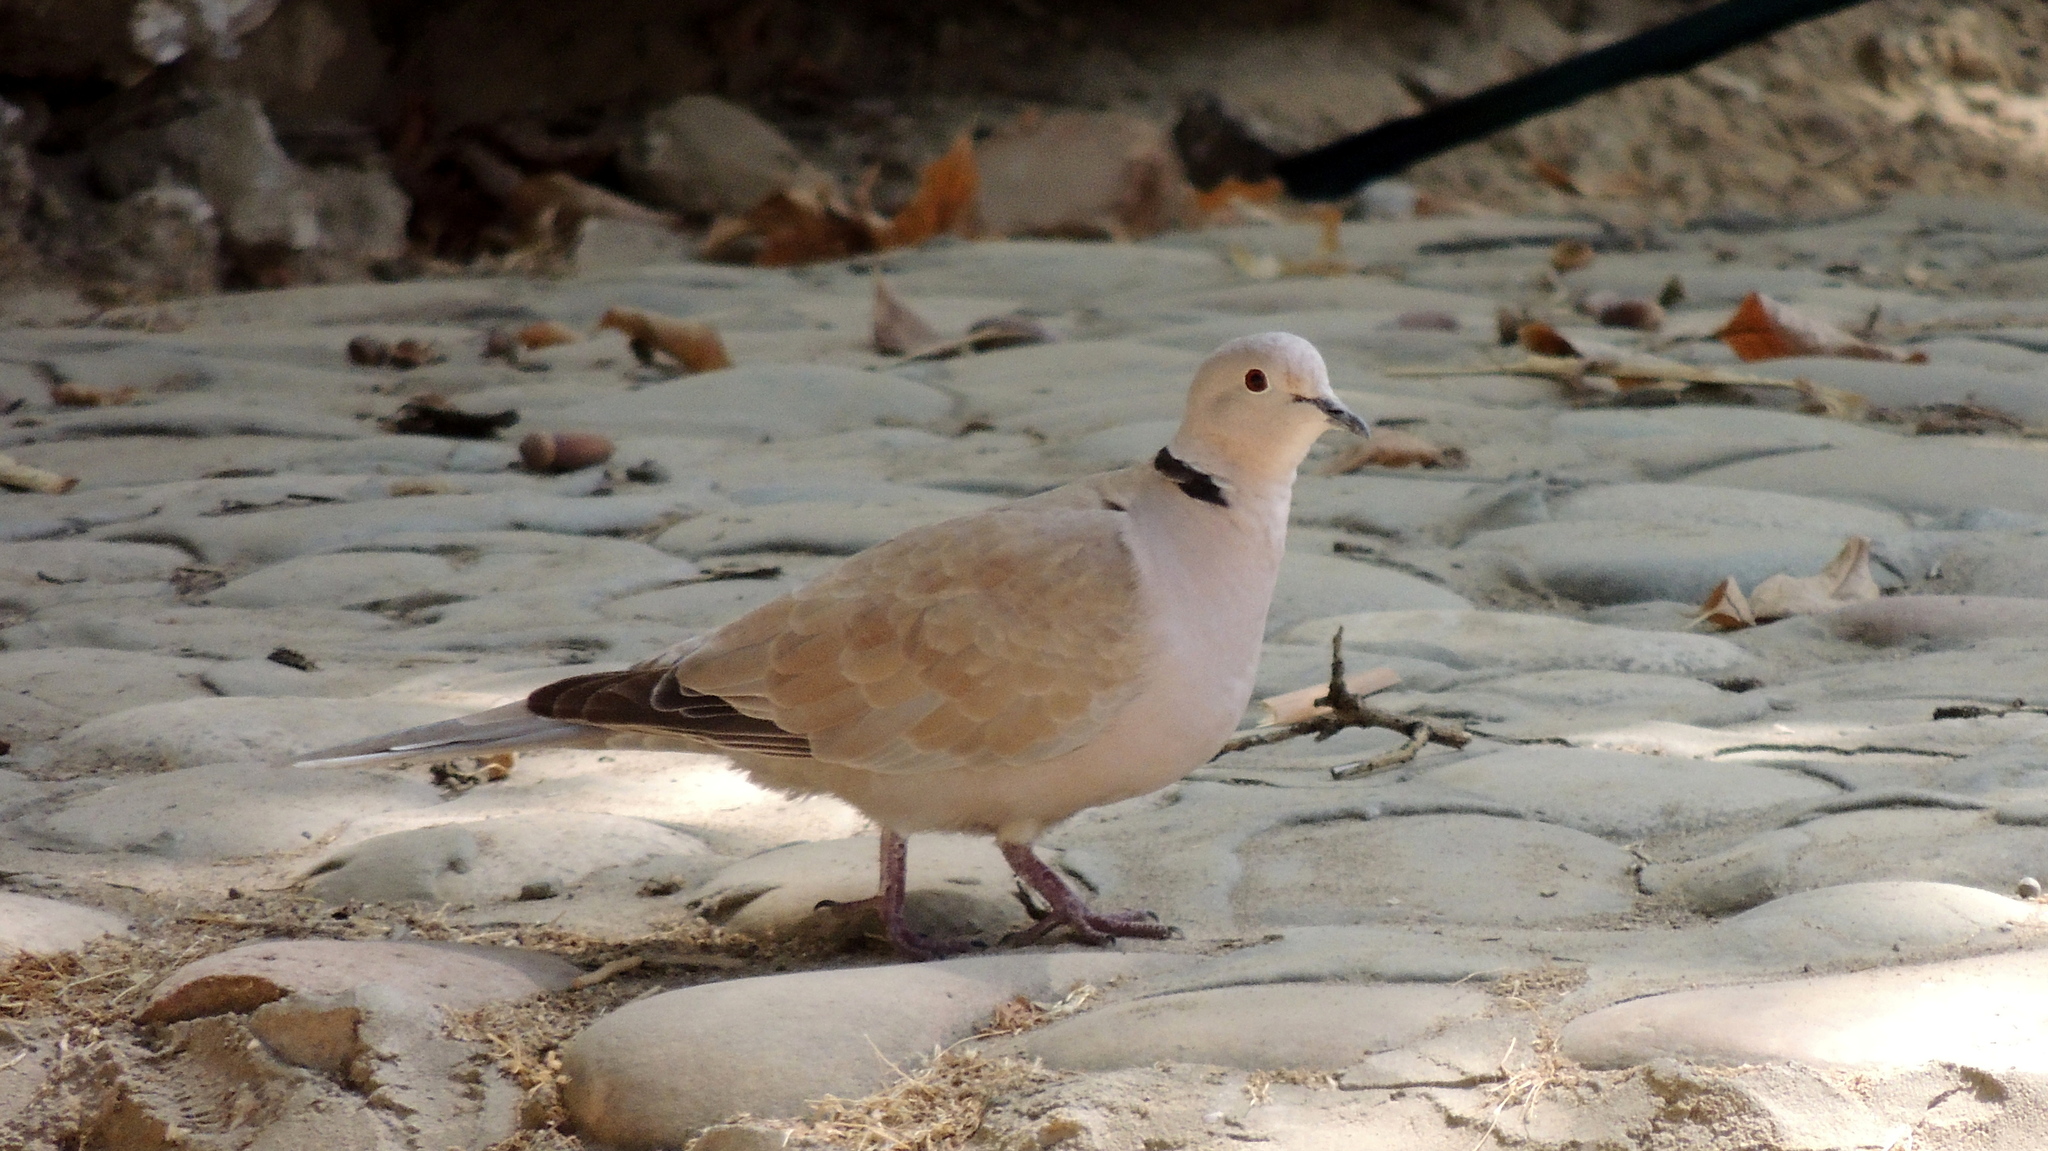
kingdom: Animalia
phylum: Chordata
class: Aves
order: Columbiformes
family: Columbidae
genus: Streptopelia
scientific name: Streptopelia decaocto
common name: Eurasian collared dove
